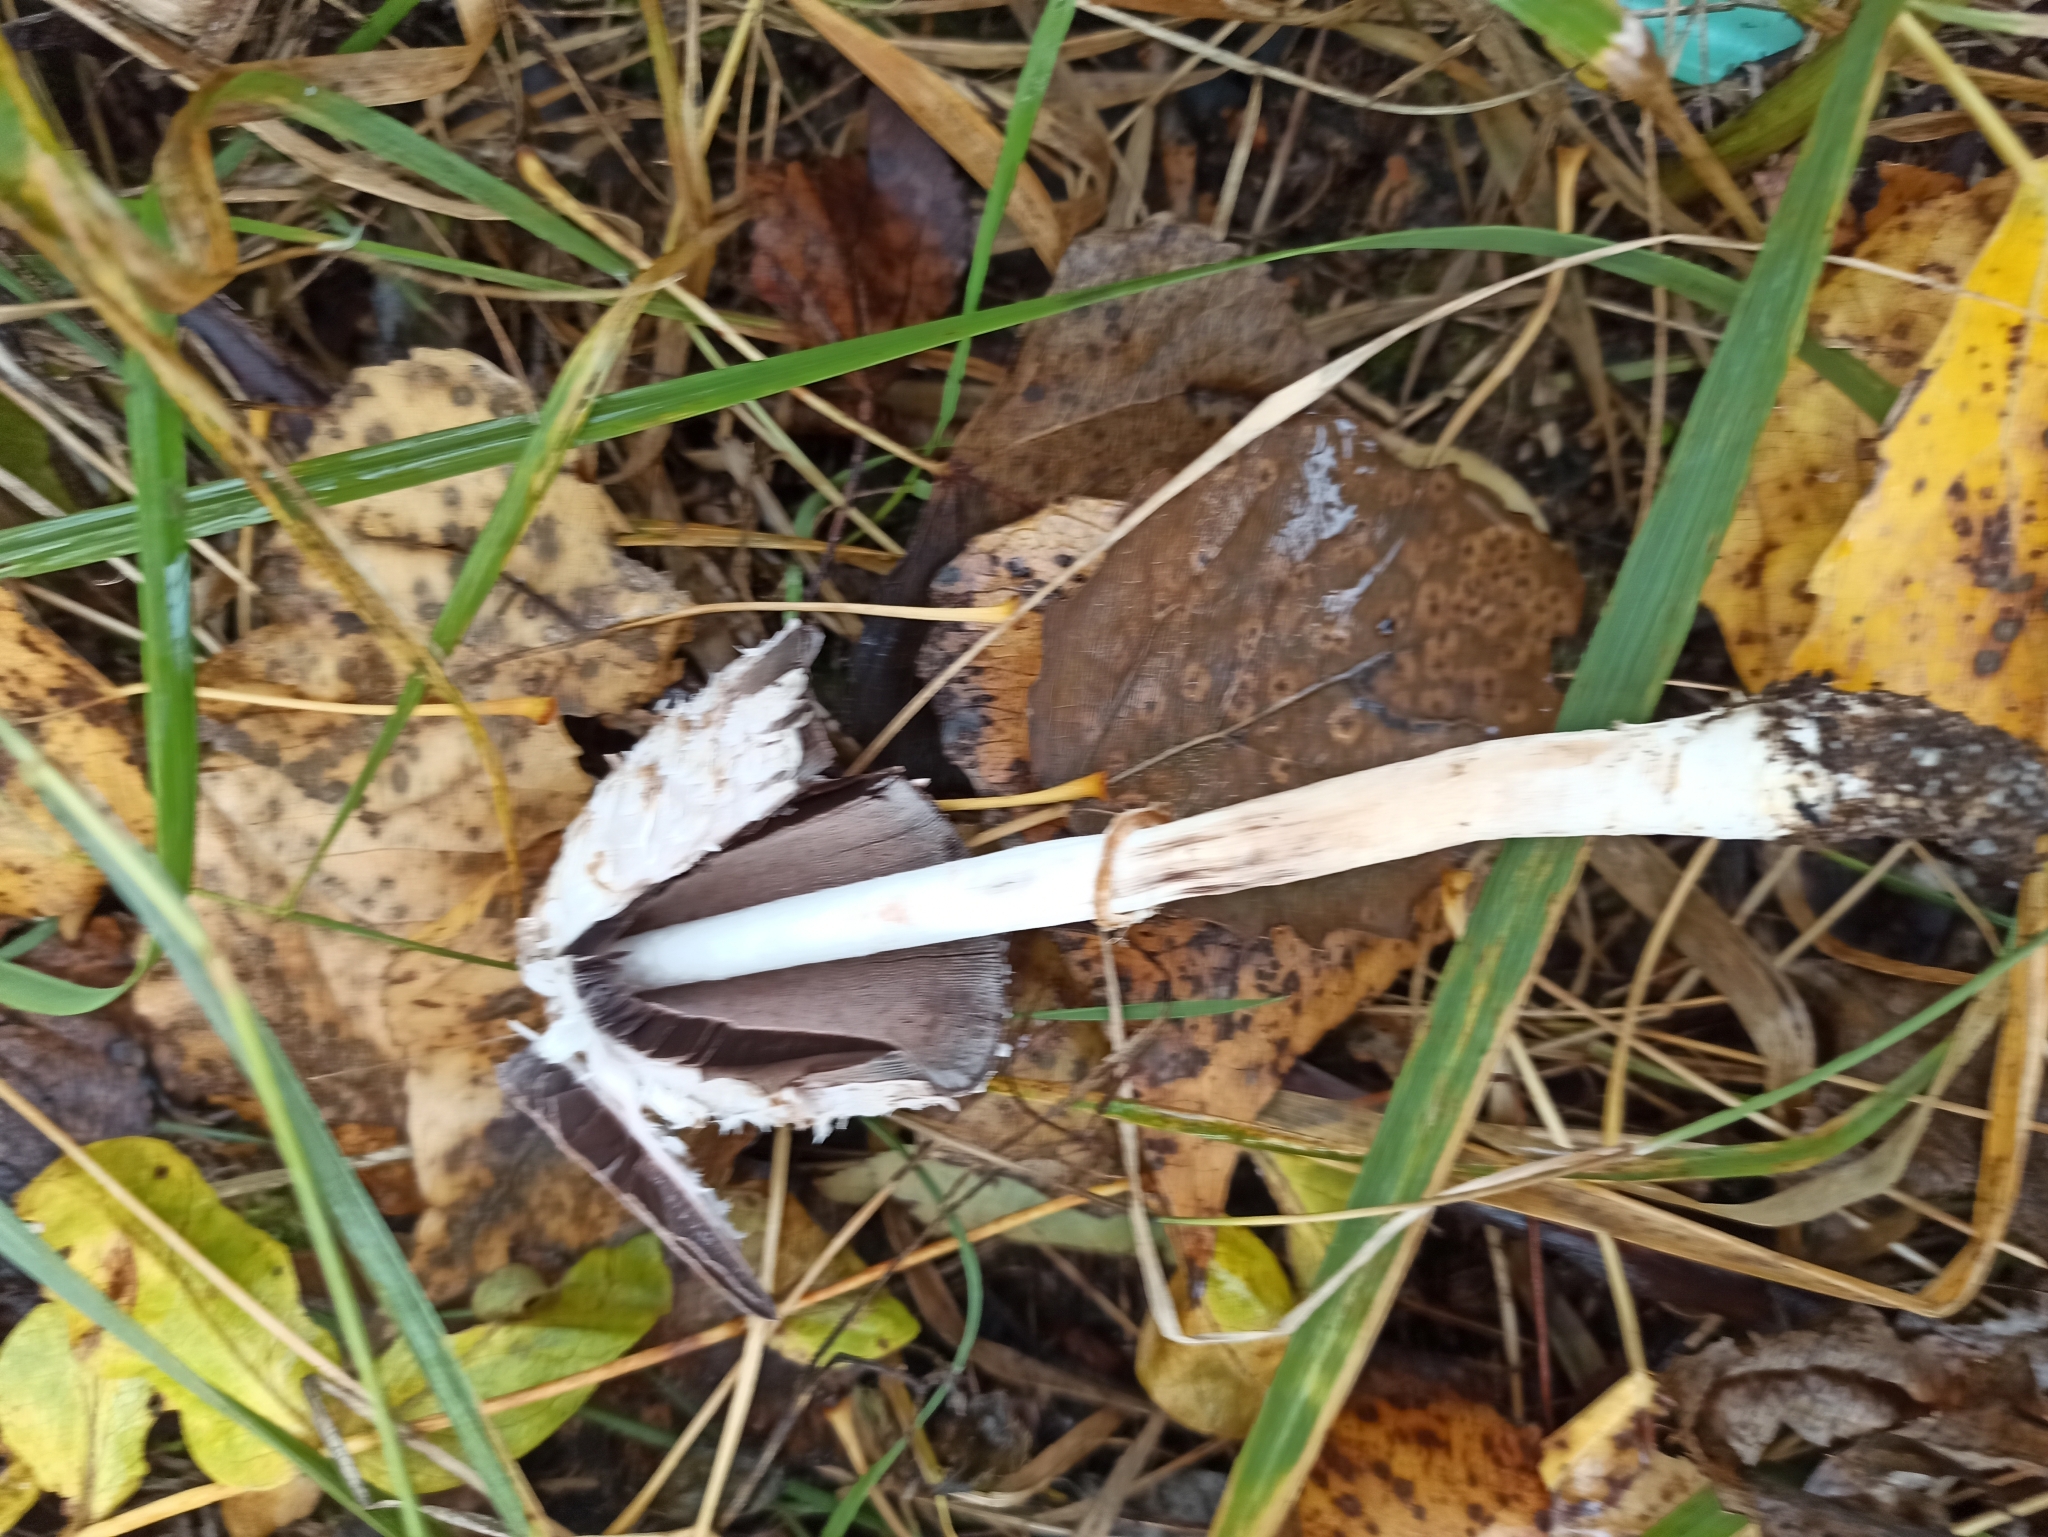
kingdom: Fungi
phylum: Basidiomycota
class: Agaricomycetes
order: Agaricales
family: Agaricaceae
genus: Coprinus
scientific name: Coprinus comatus
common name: Lawyer's wig
